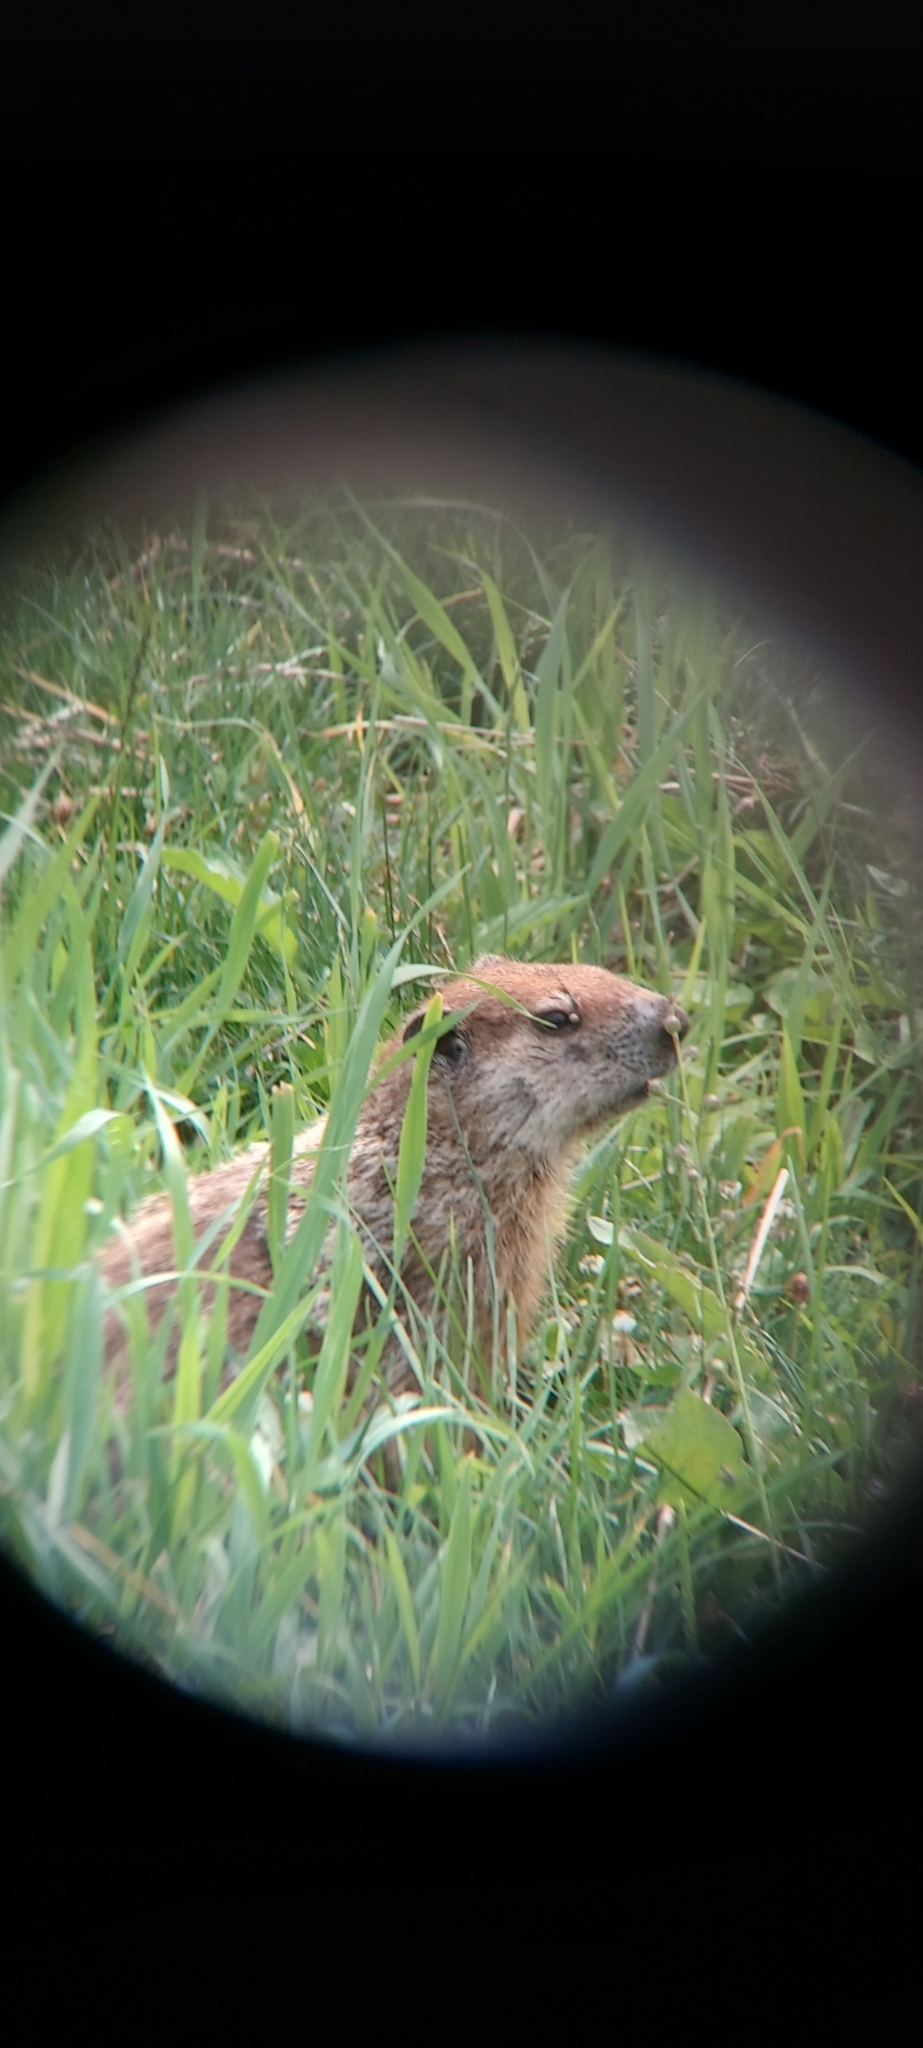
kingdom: Animalia
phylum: Chordata
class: Mammalia
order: Rodentia
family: Sciuridae
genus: Marmota
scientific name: Marmota monax
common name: Groundhog
